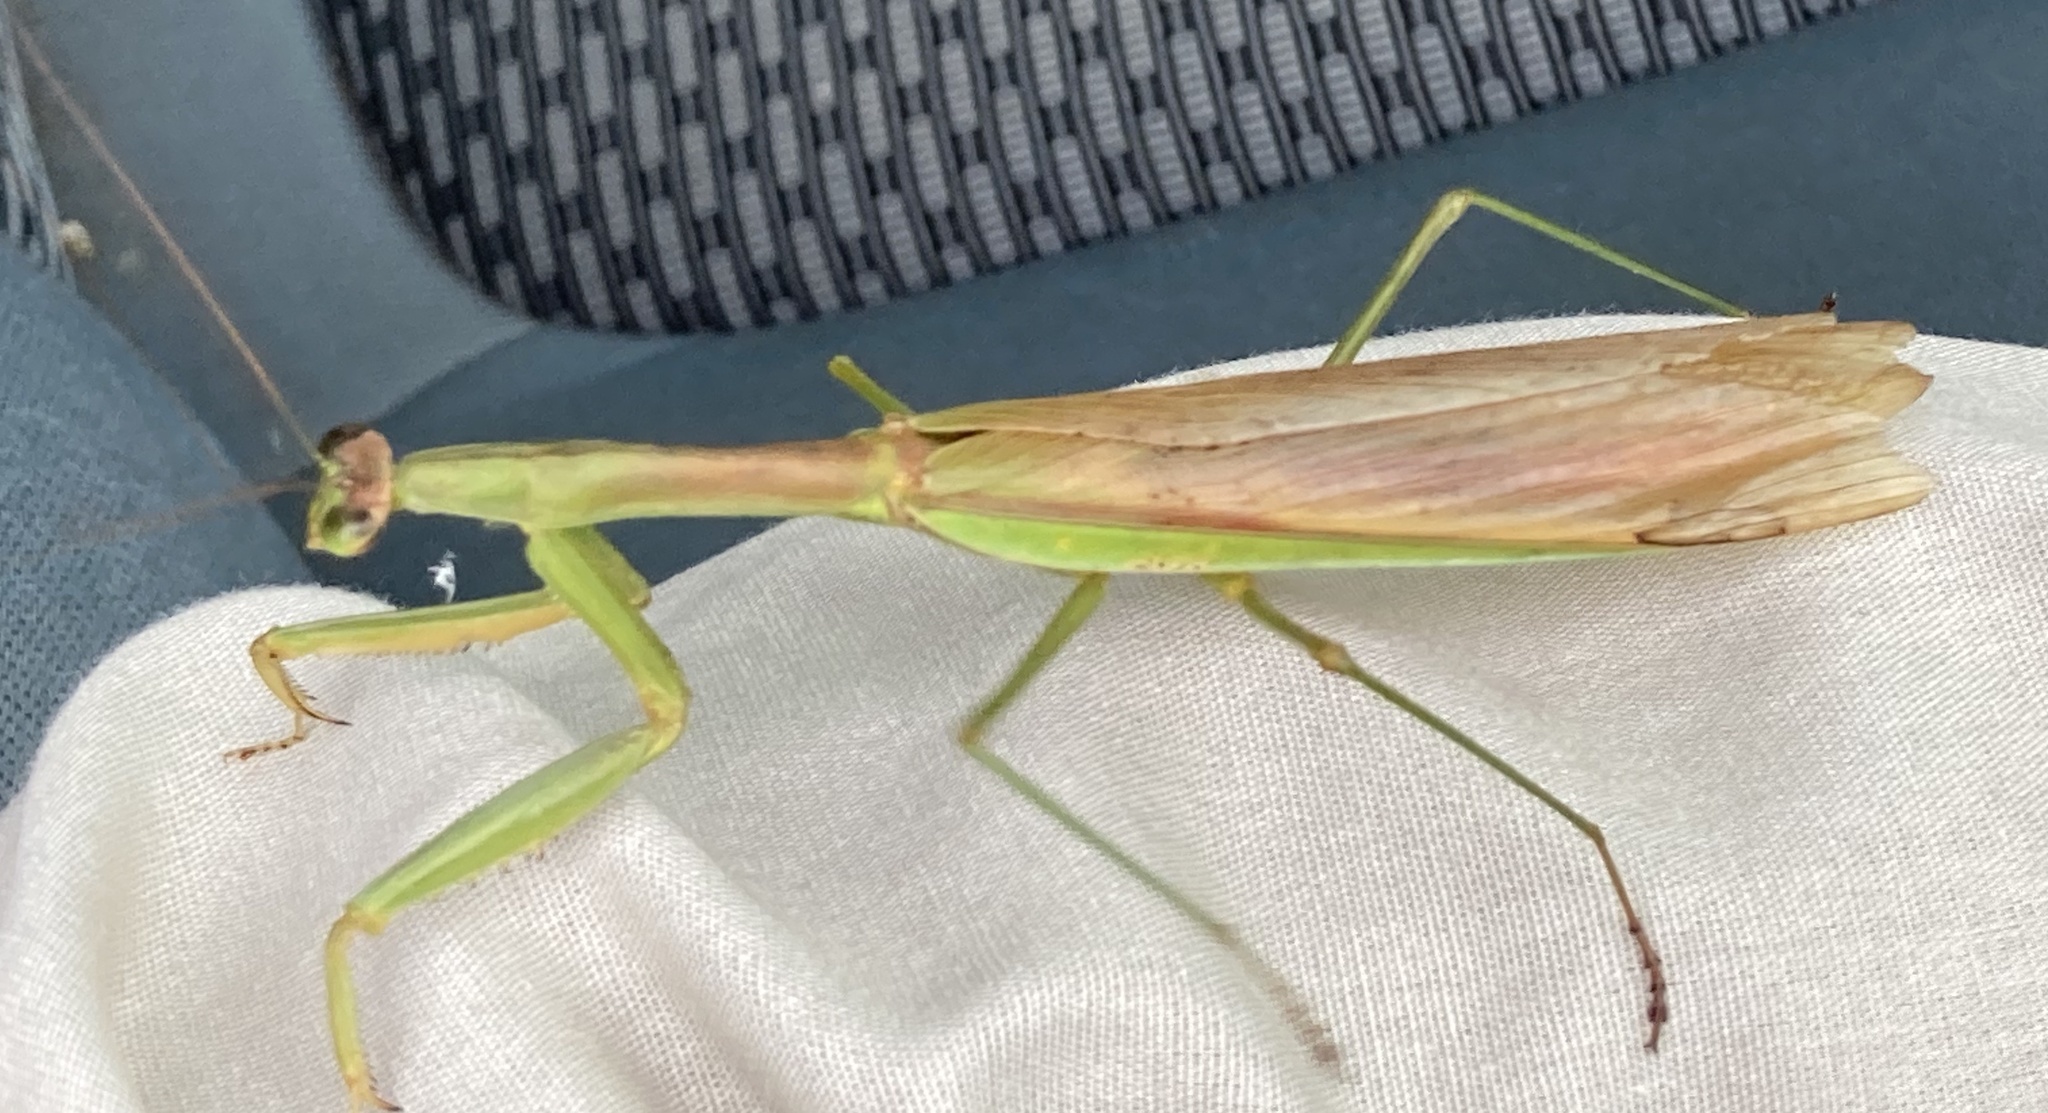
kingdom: Animalia
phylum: Arthropoda
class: Insecta
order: Mantodea
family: Mantidae
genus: Tenodera
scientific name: Tenodera sinensis
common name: Chinese mantis
